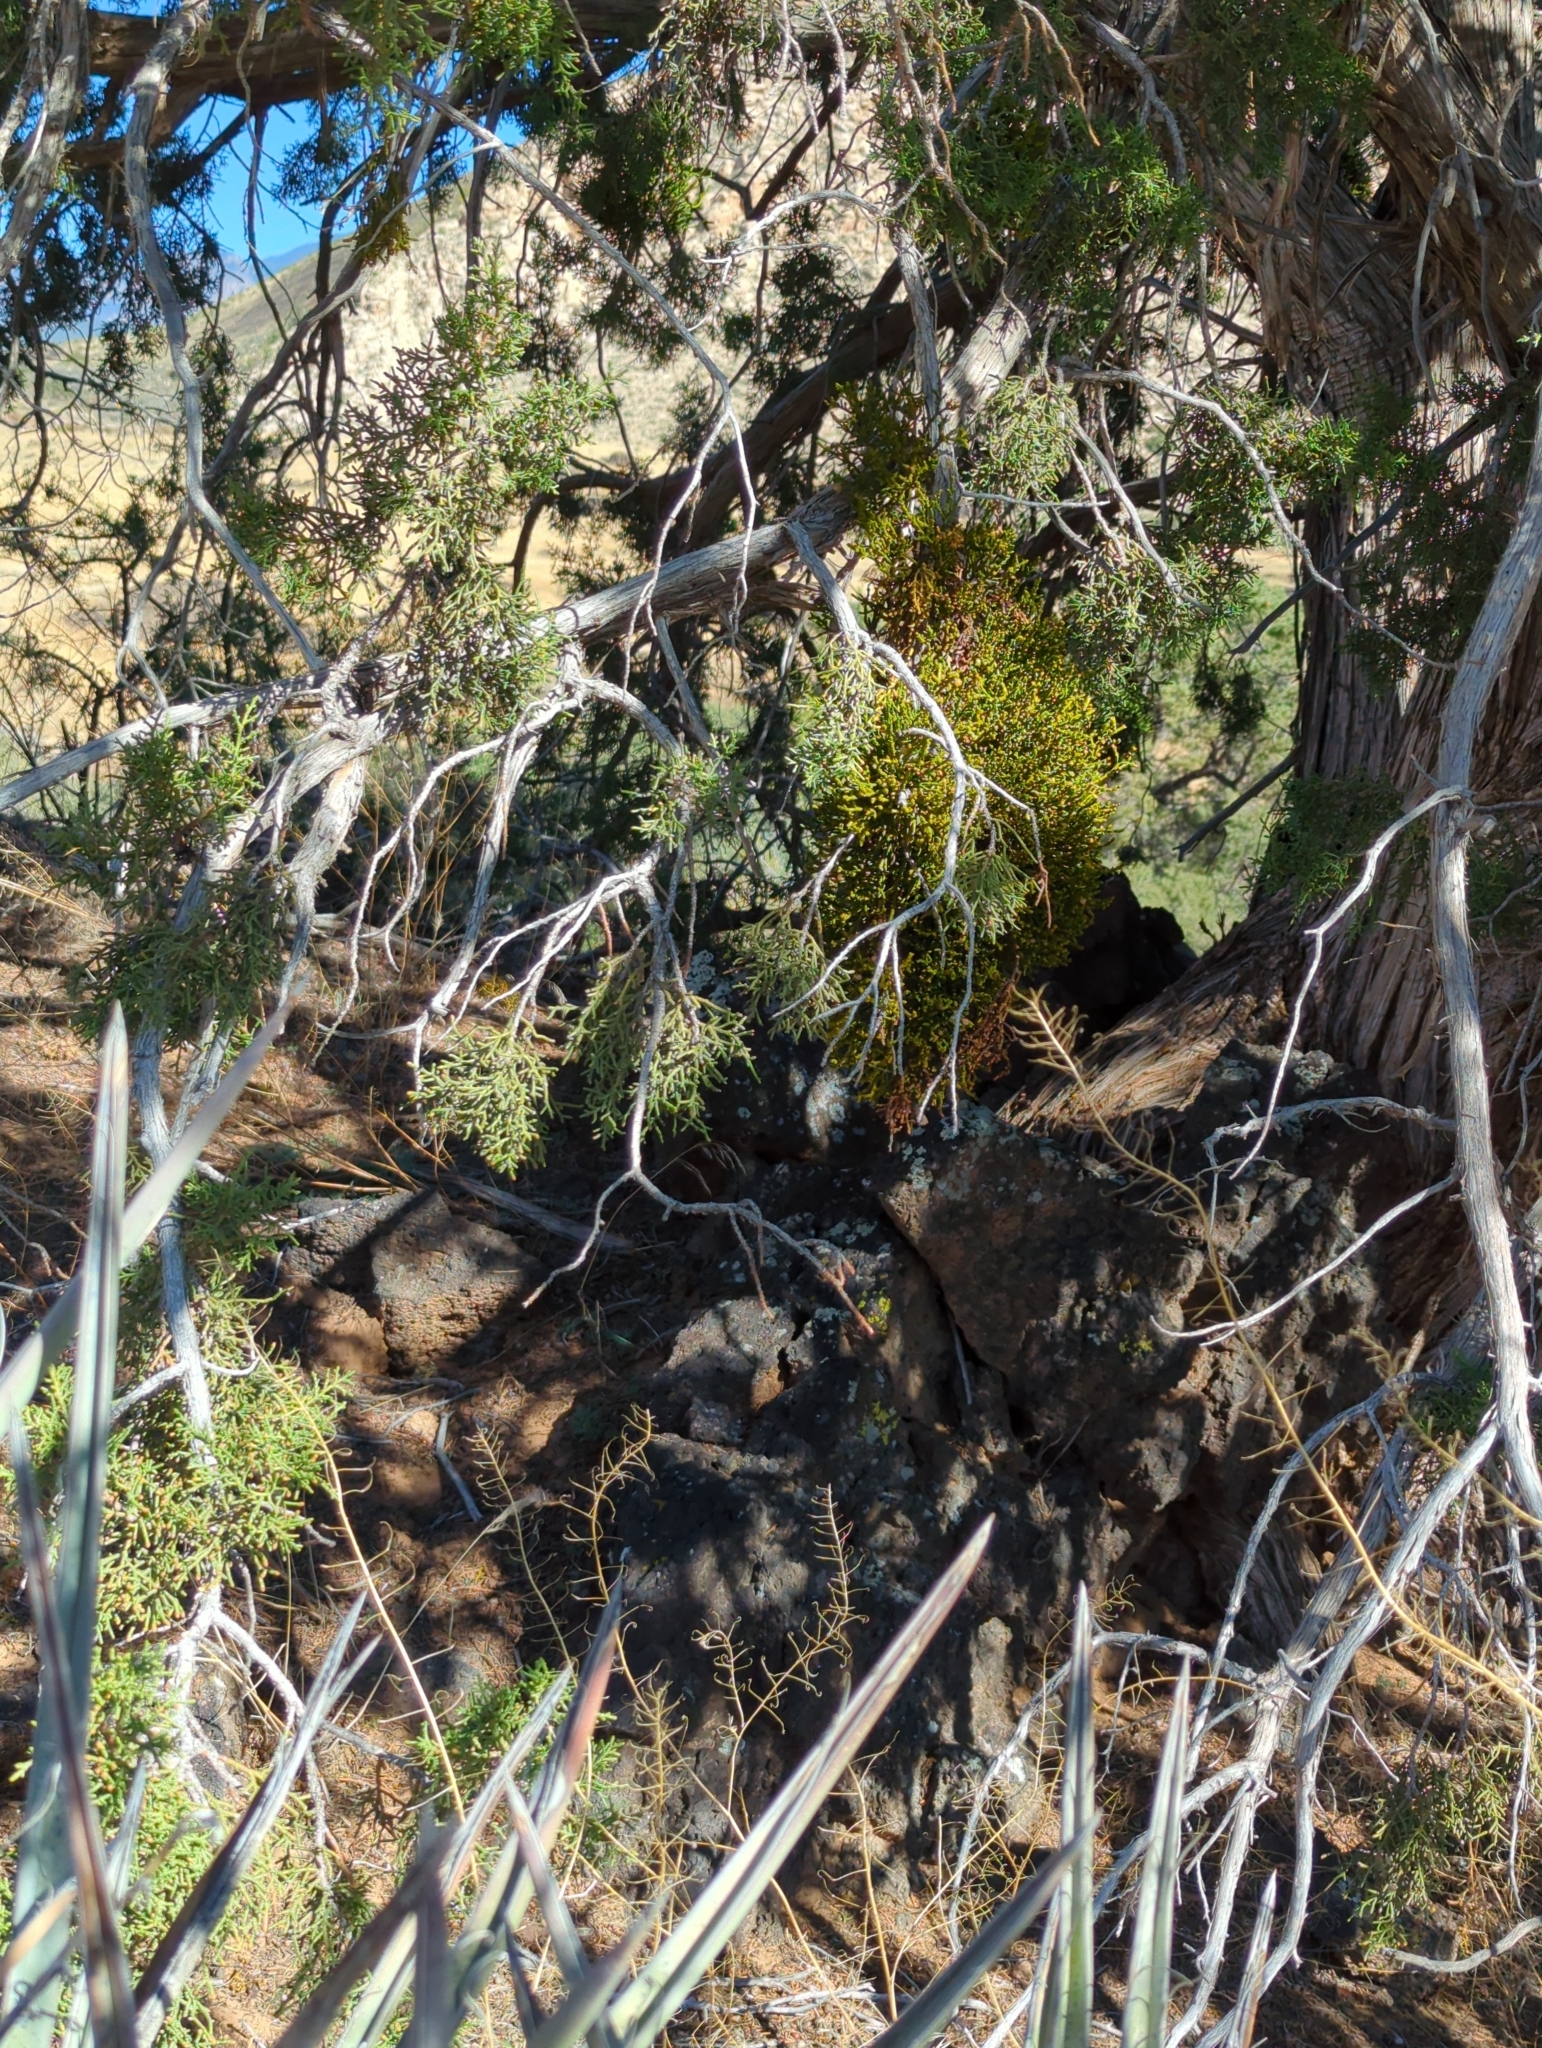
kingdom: Plantae
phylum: Tracheophyta
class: Magnoliopsida
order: Santalales
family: Viscaceae
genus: Phoradendron
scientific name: Phoradendron juniperinum
